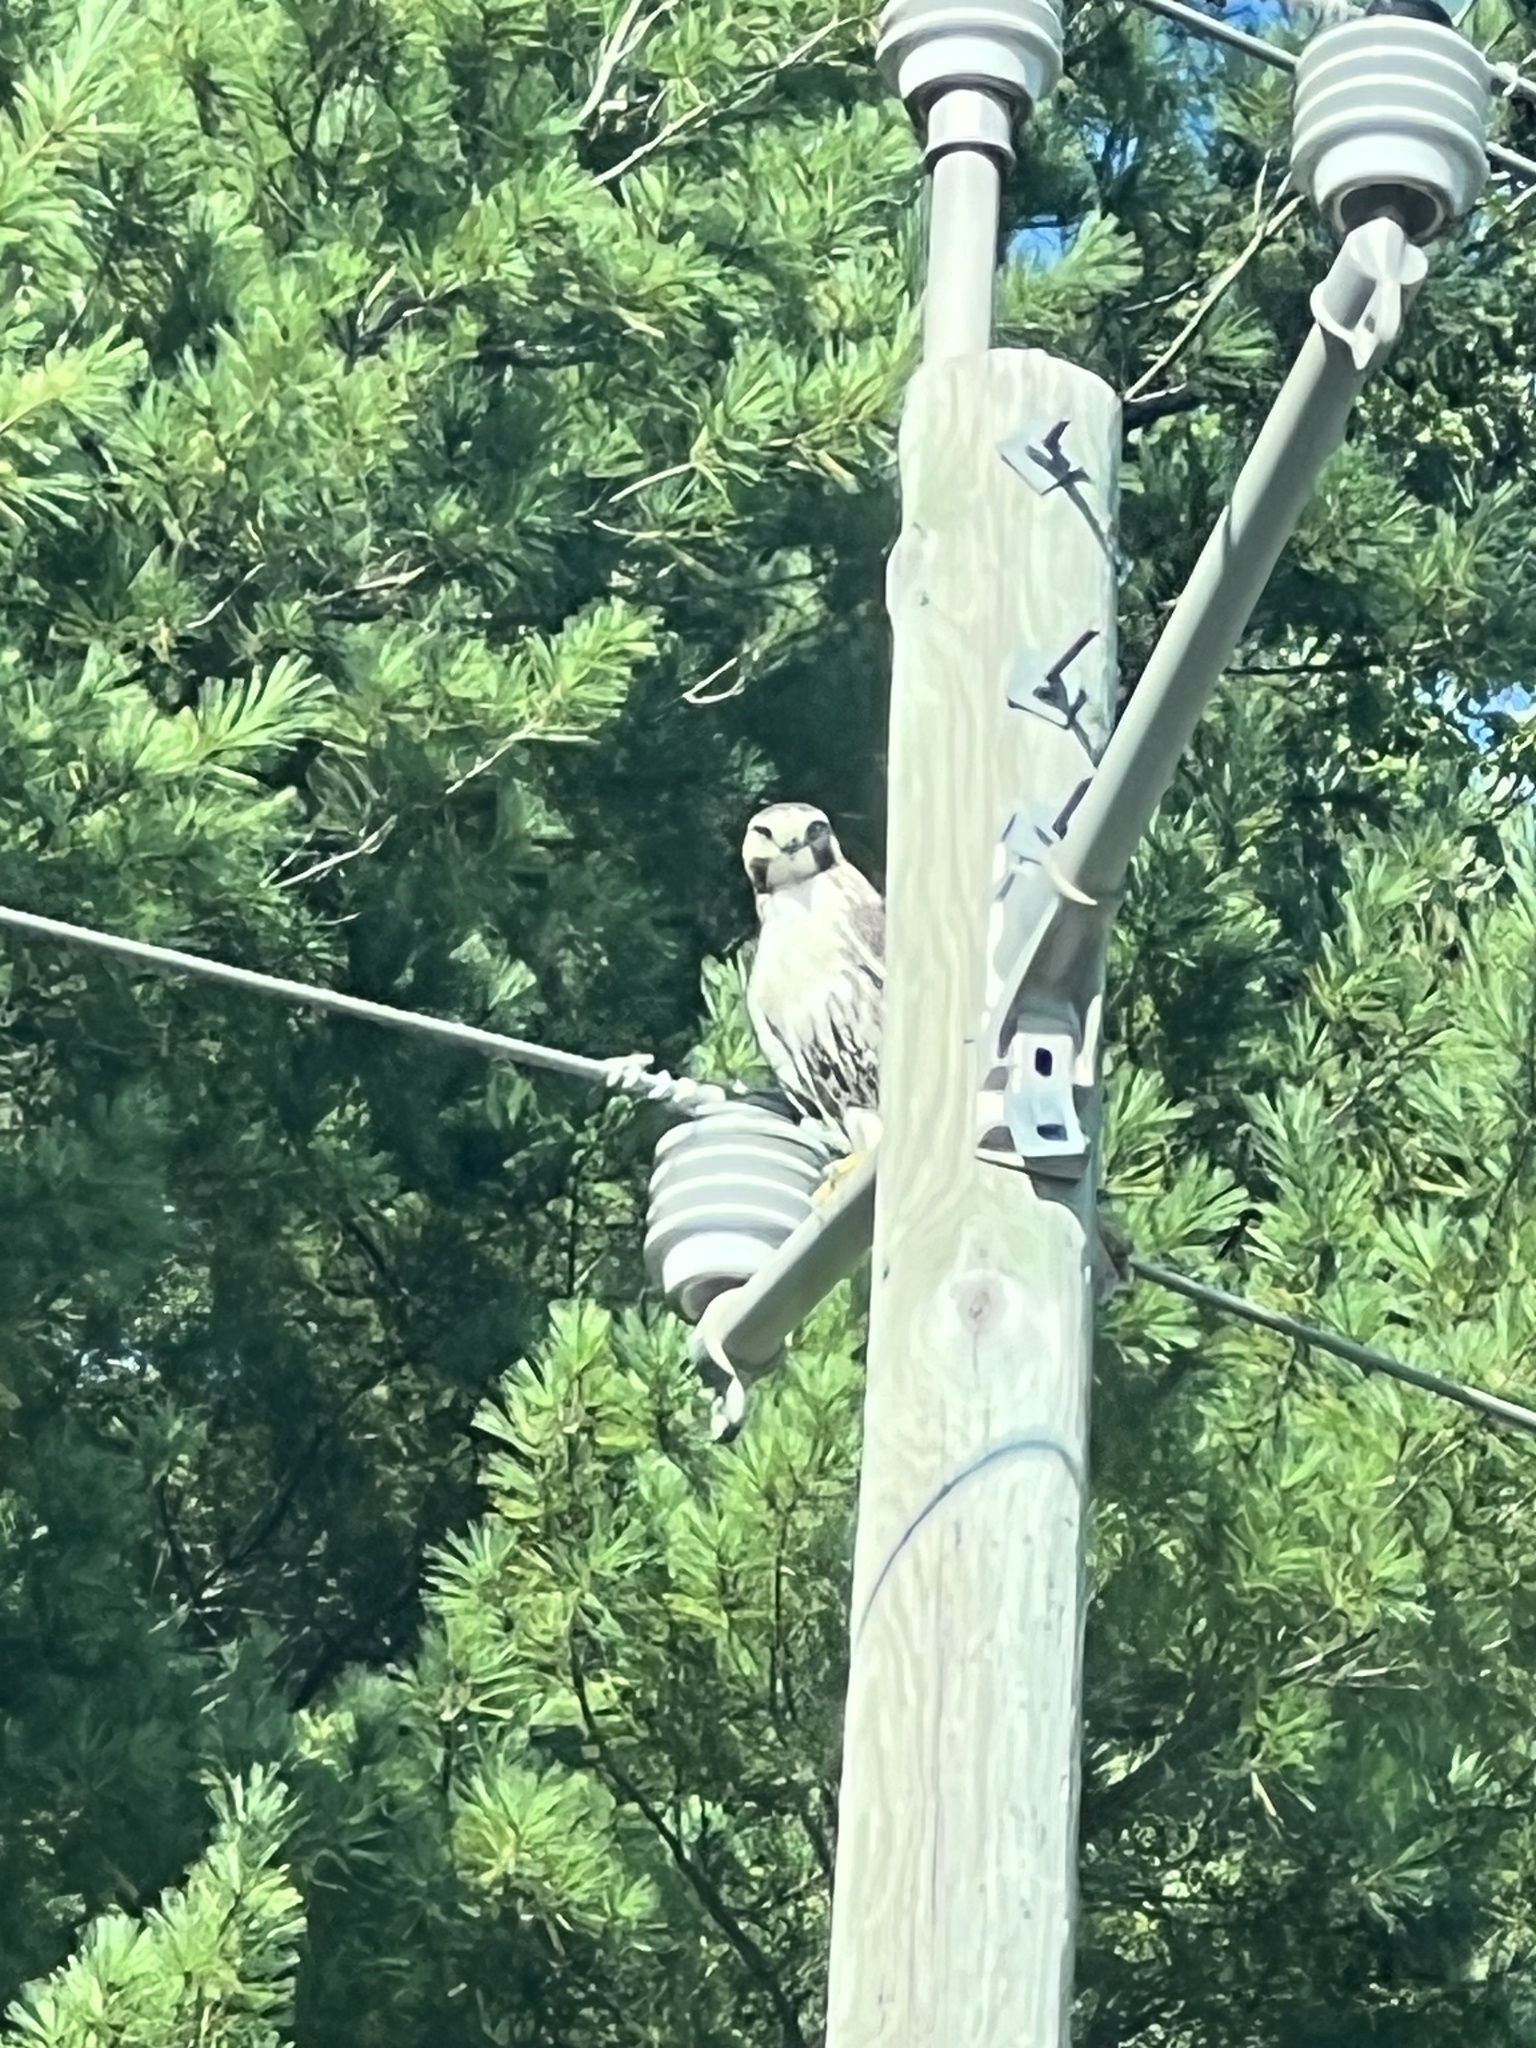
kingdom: Animalia
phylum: Chordata
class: Aves
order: Accipitriformes
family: Accipitridae
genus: Buteo
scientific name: Buteo jamaicensis
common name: Red-tailed hawk
